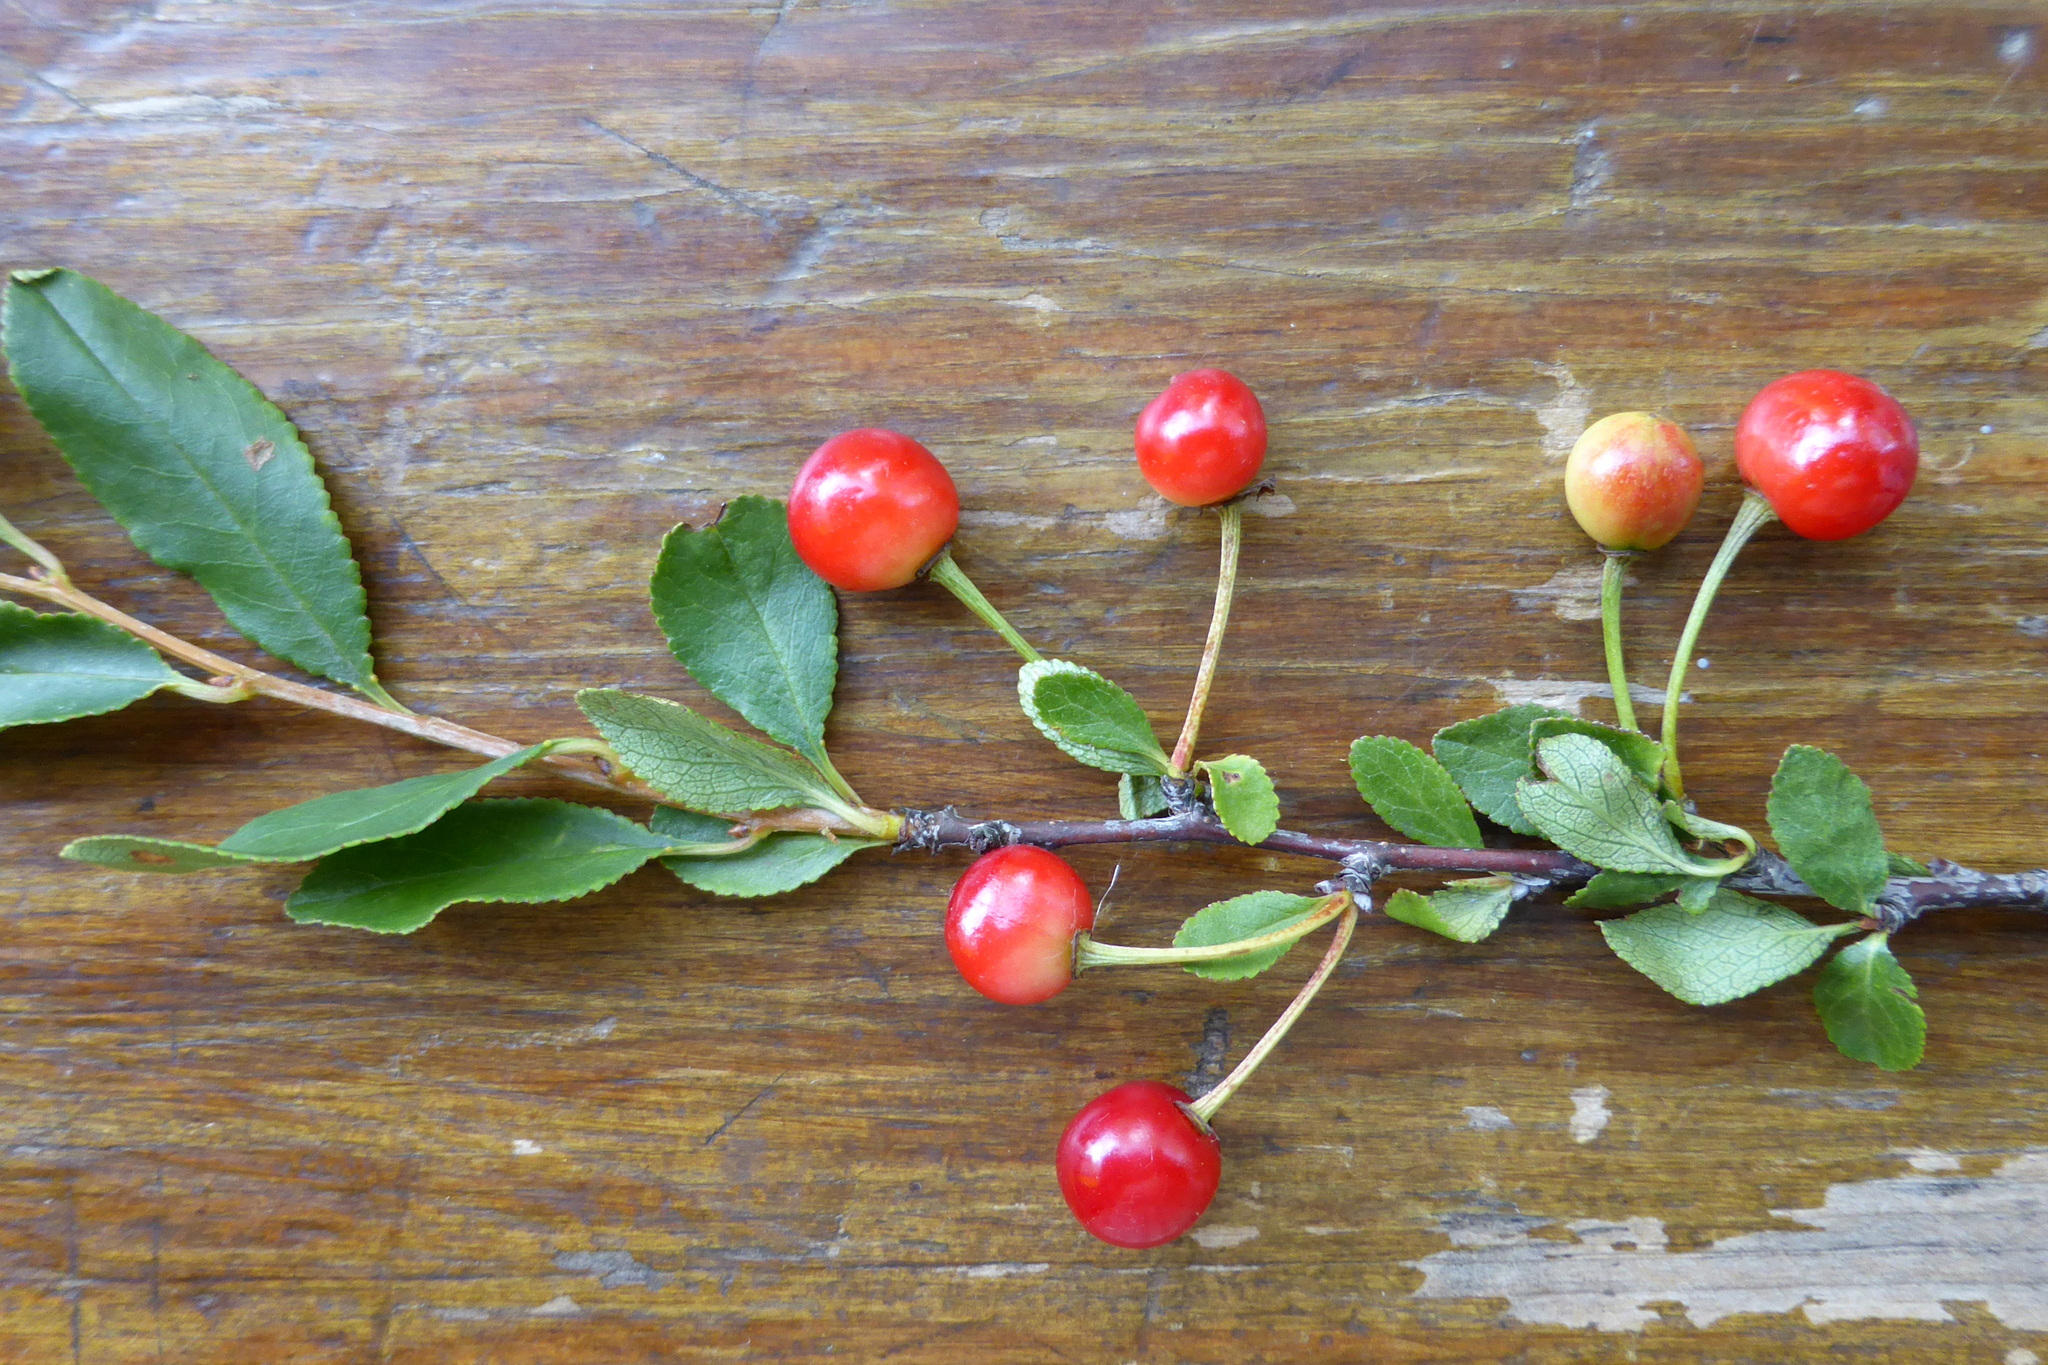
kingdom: Plantae
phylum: Tracheophyta
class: Magnoliopsida
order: Rosales
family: Rosaceae
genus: Prunus
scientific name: Prunus fruticosa
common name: European dwarf cherry
